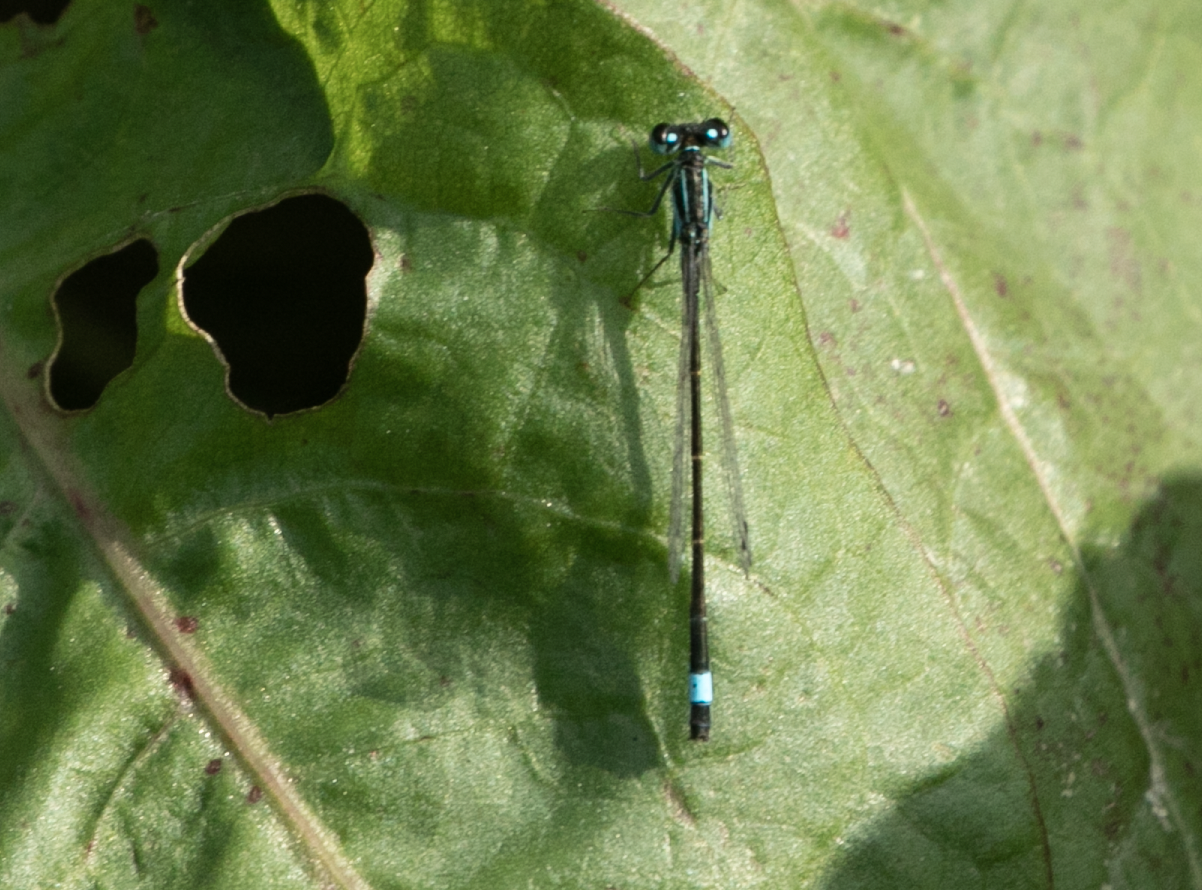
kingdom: Animalia
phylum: Arthropoda
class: Insecta
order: Odonata
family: Coenagrionidae
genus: Ischnura
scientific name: Ischnura elegans
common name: Blue-tailed damselfly
